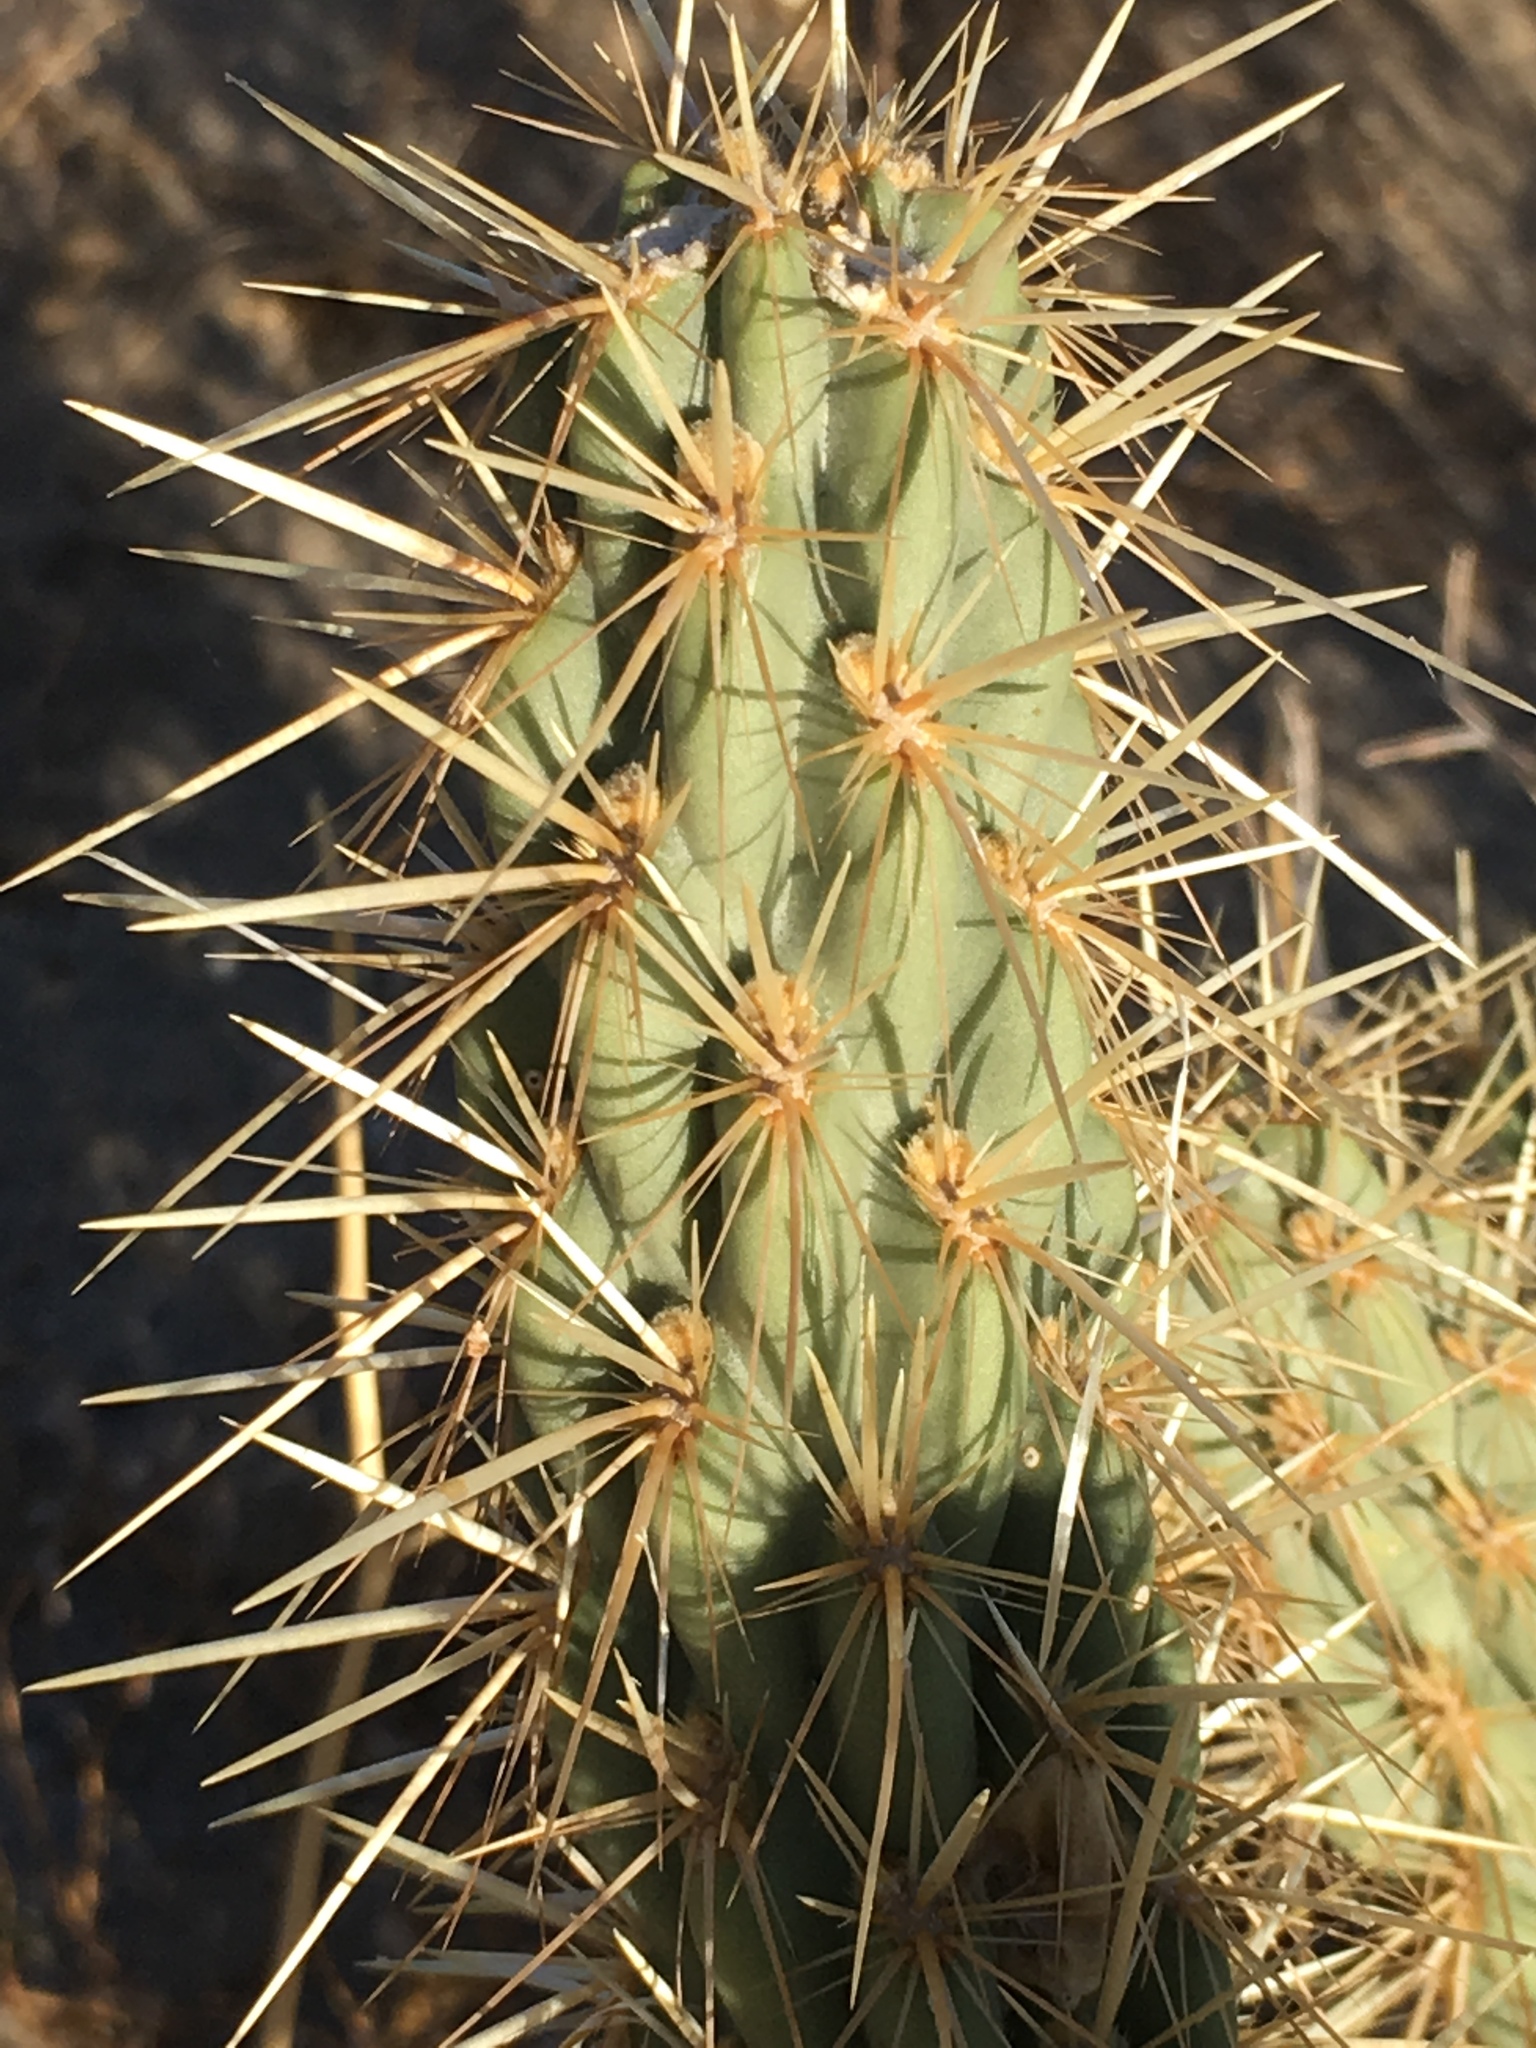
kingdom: Plantae
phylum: Tracheophyta
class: Magnoliopsida
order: Caryophyllales
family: Cactaceae
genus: Cylindropuntia
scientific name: Cylindropuntia ganderi
